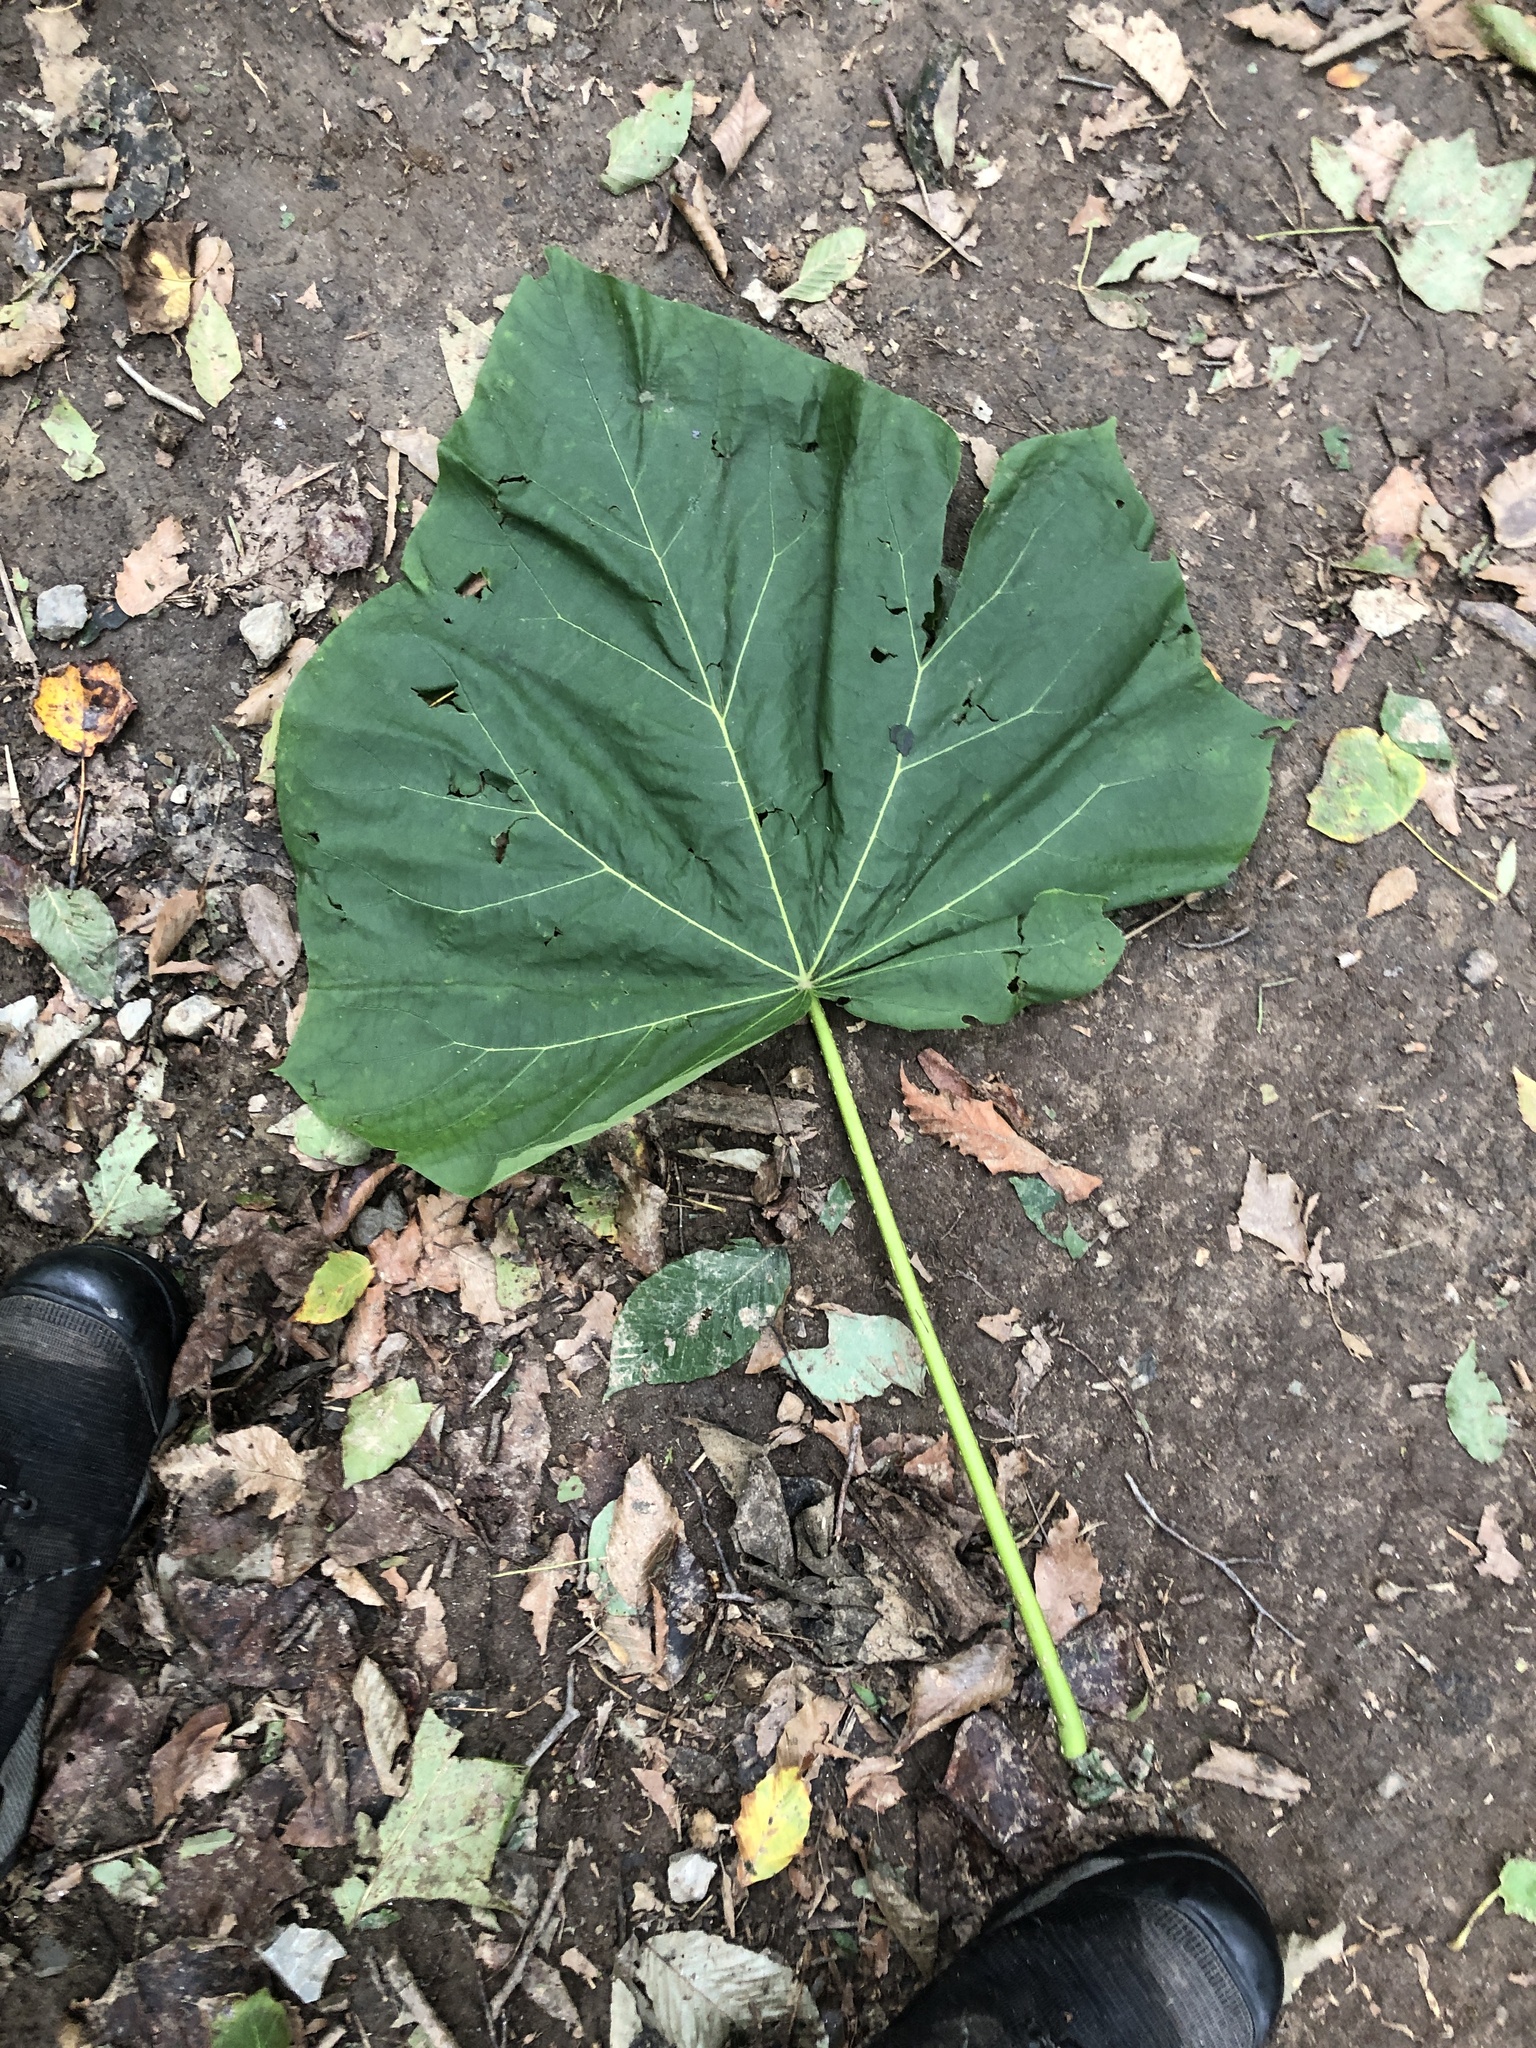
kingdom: Plantae
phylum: Tracheophyta
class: Magnoliopsida
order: Lamiales
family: Paulowniaceae
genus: Paulownia
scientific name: Paulownia tomentosa
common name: Foxglove-tree
